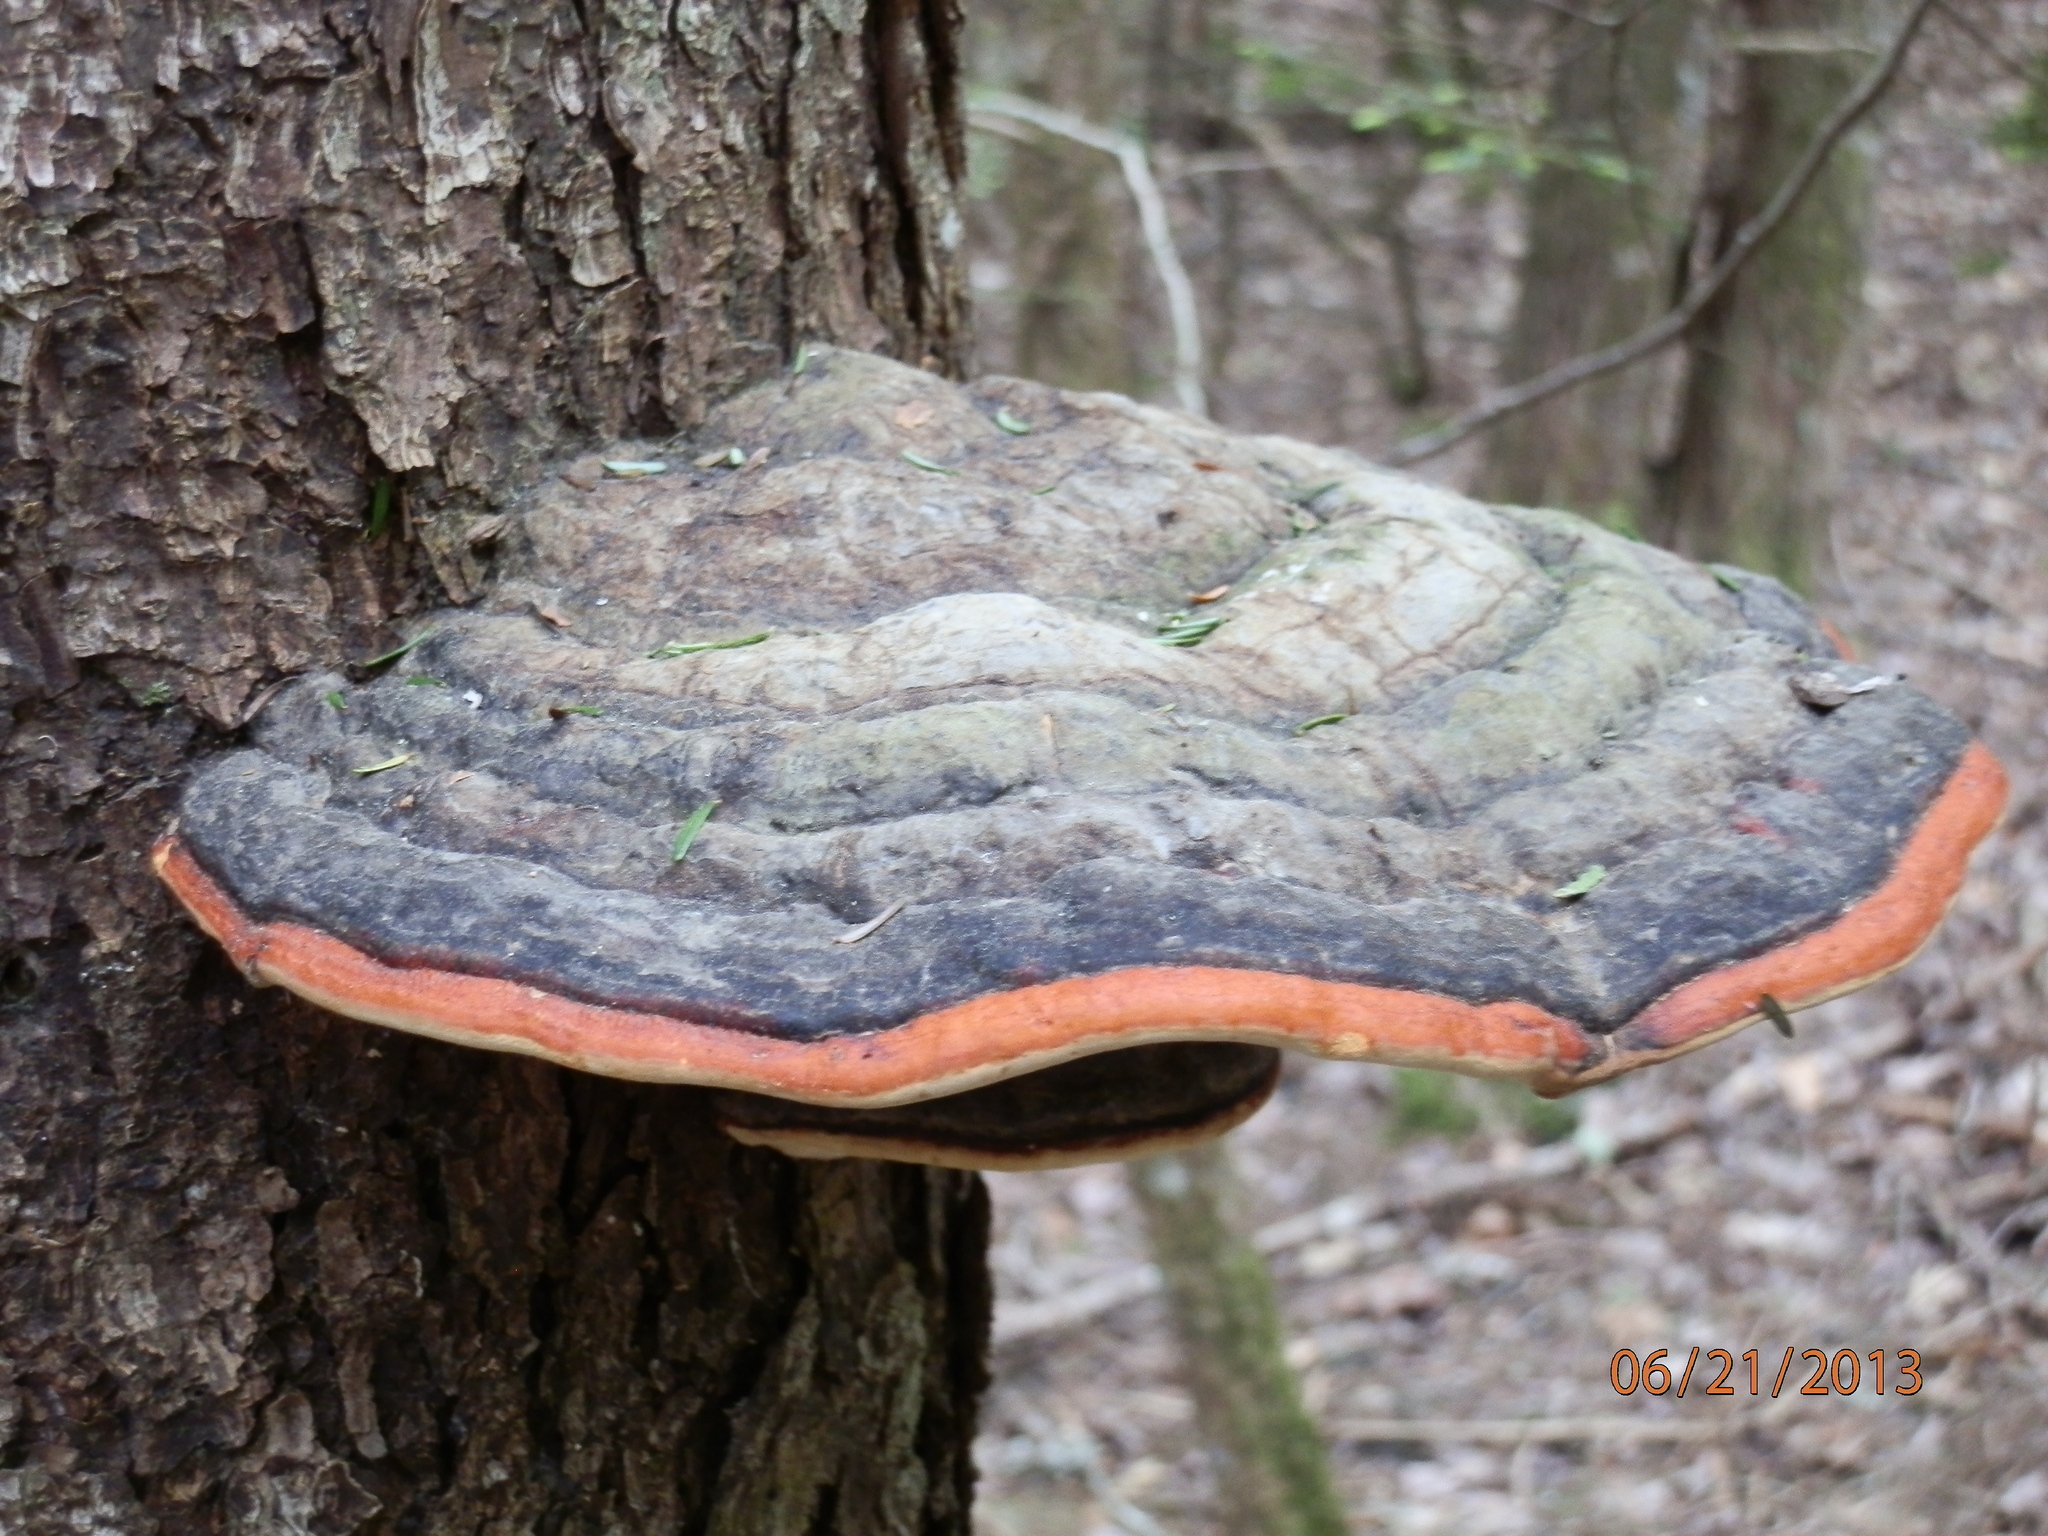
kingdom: Fungi
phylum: Basidiomycota
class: Agaricomycetes
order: Polyporales
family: Fomitopsidaceae
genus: Fomitopsis
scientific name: Fomitopsis mounceae
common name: Northern red belt
